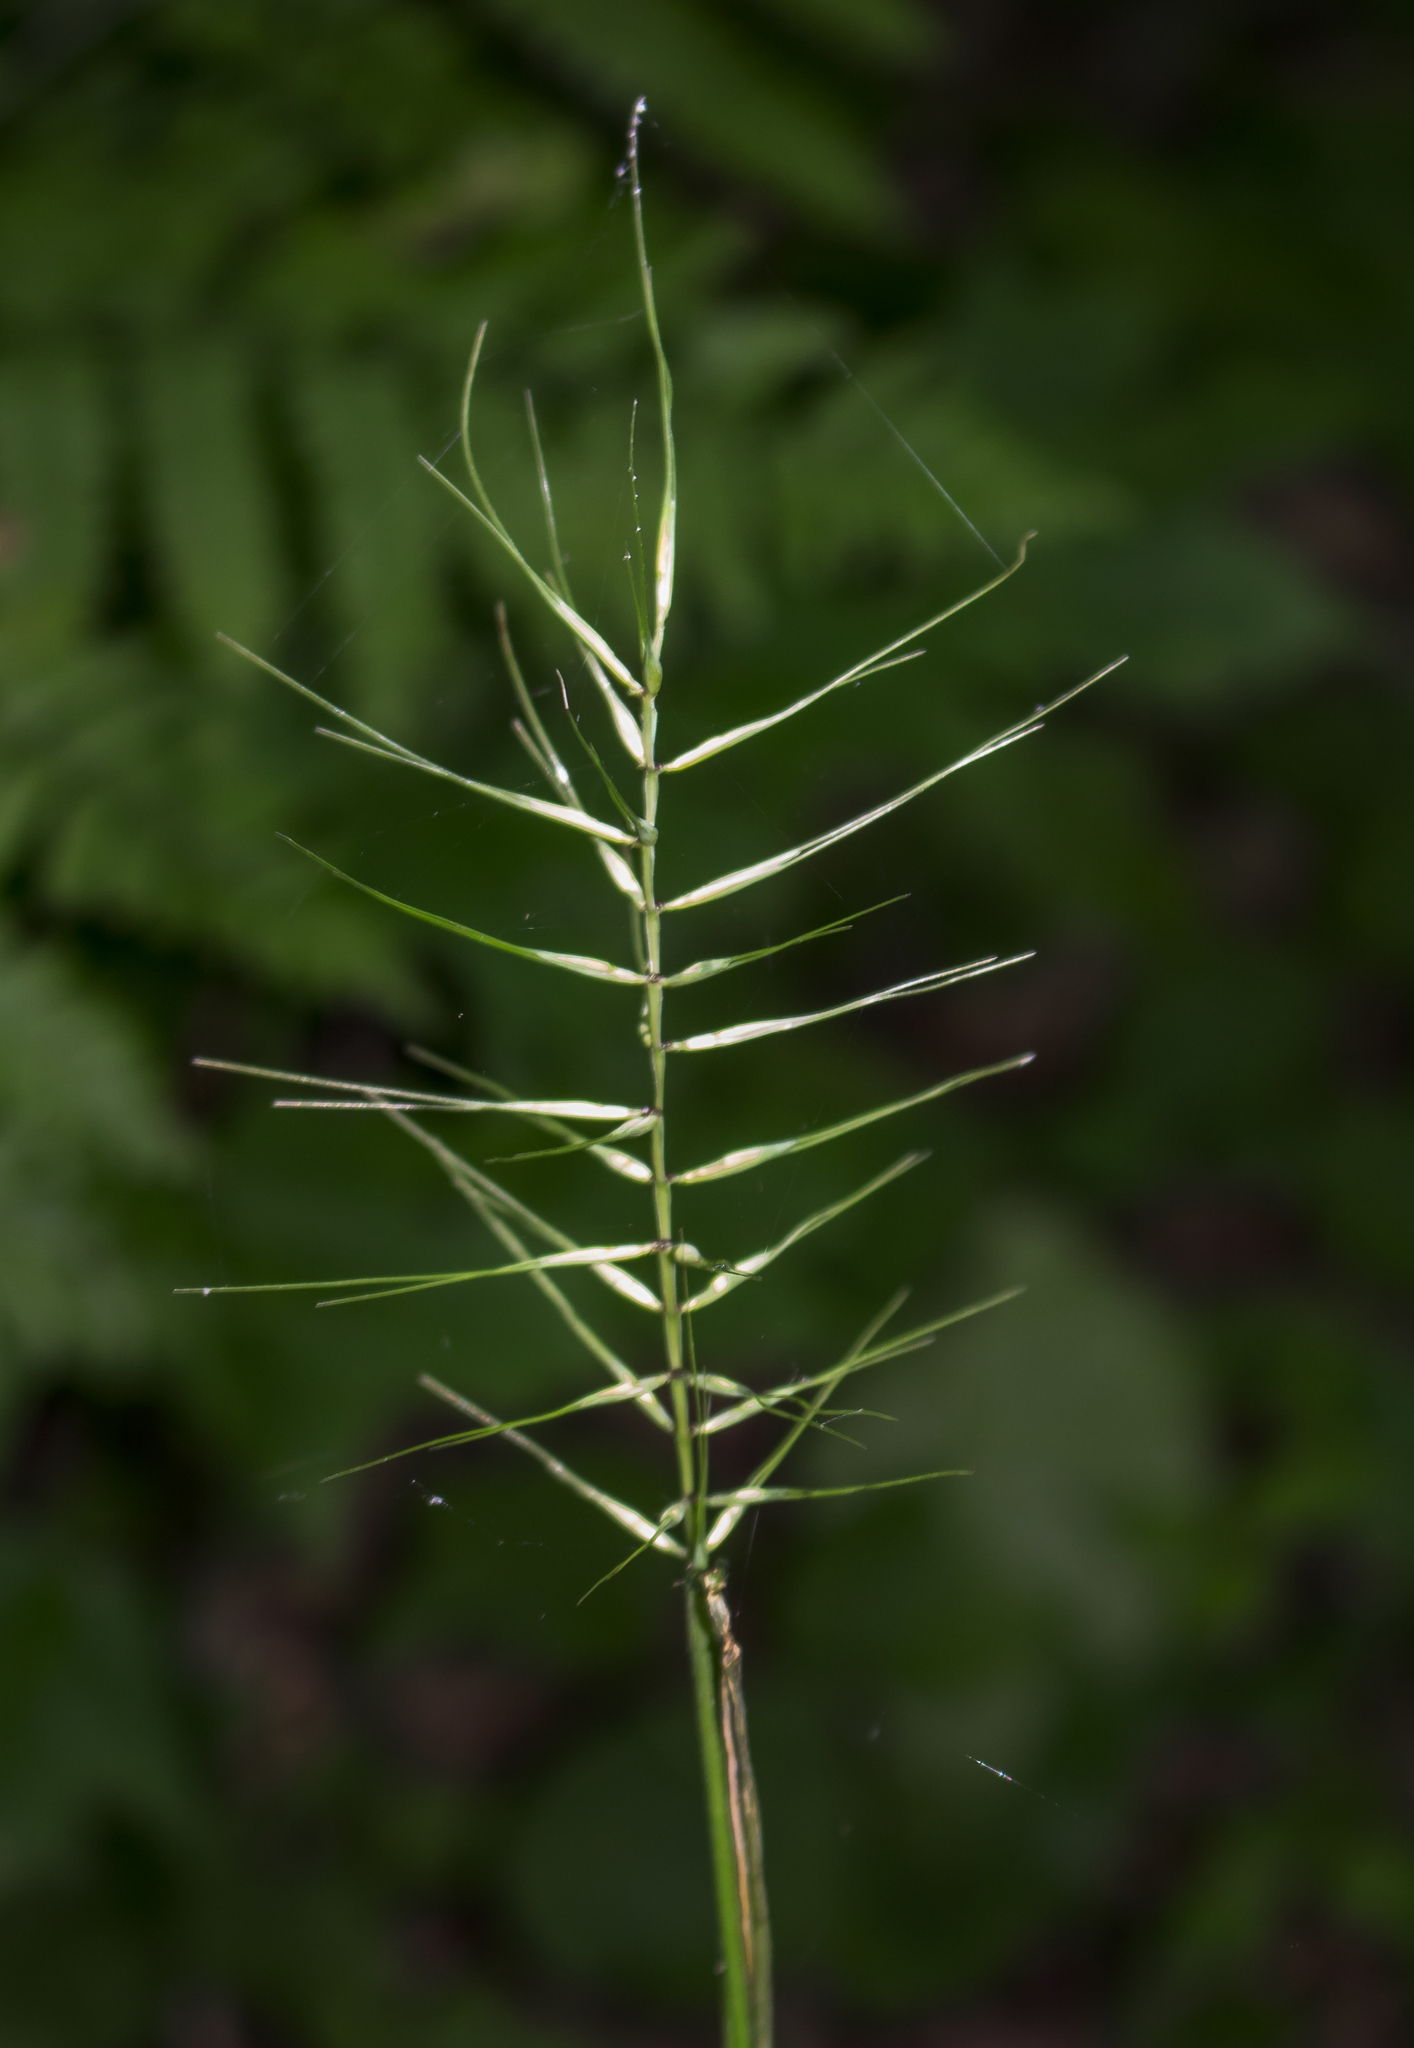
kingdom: Plantae
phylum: Tracheophyta
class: Liliopsida
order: Poales
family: Poaceae
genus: Elymus
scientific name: Elymus hystrix
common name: Bottlebrush grass
